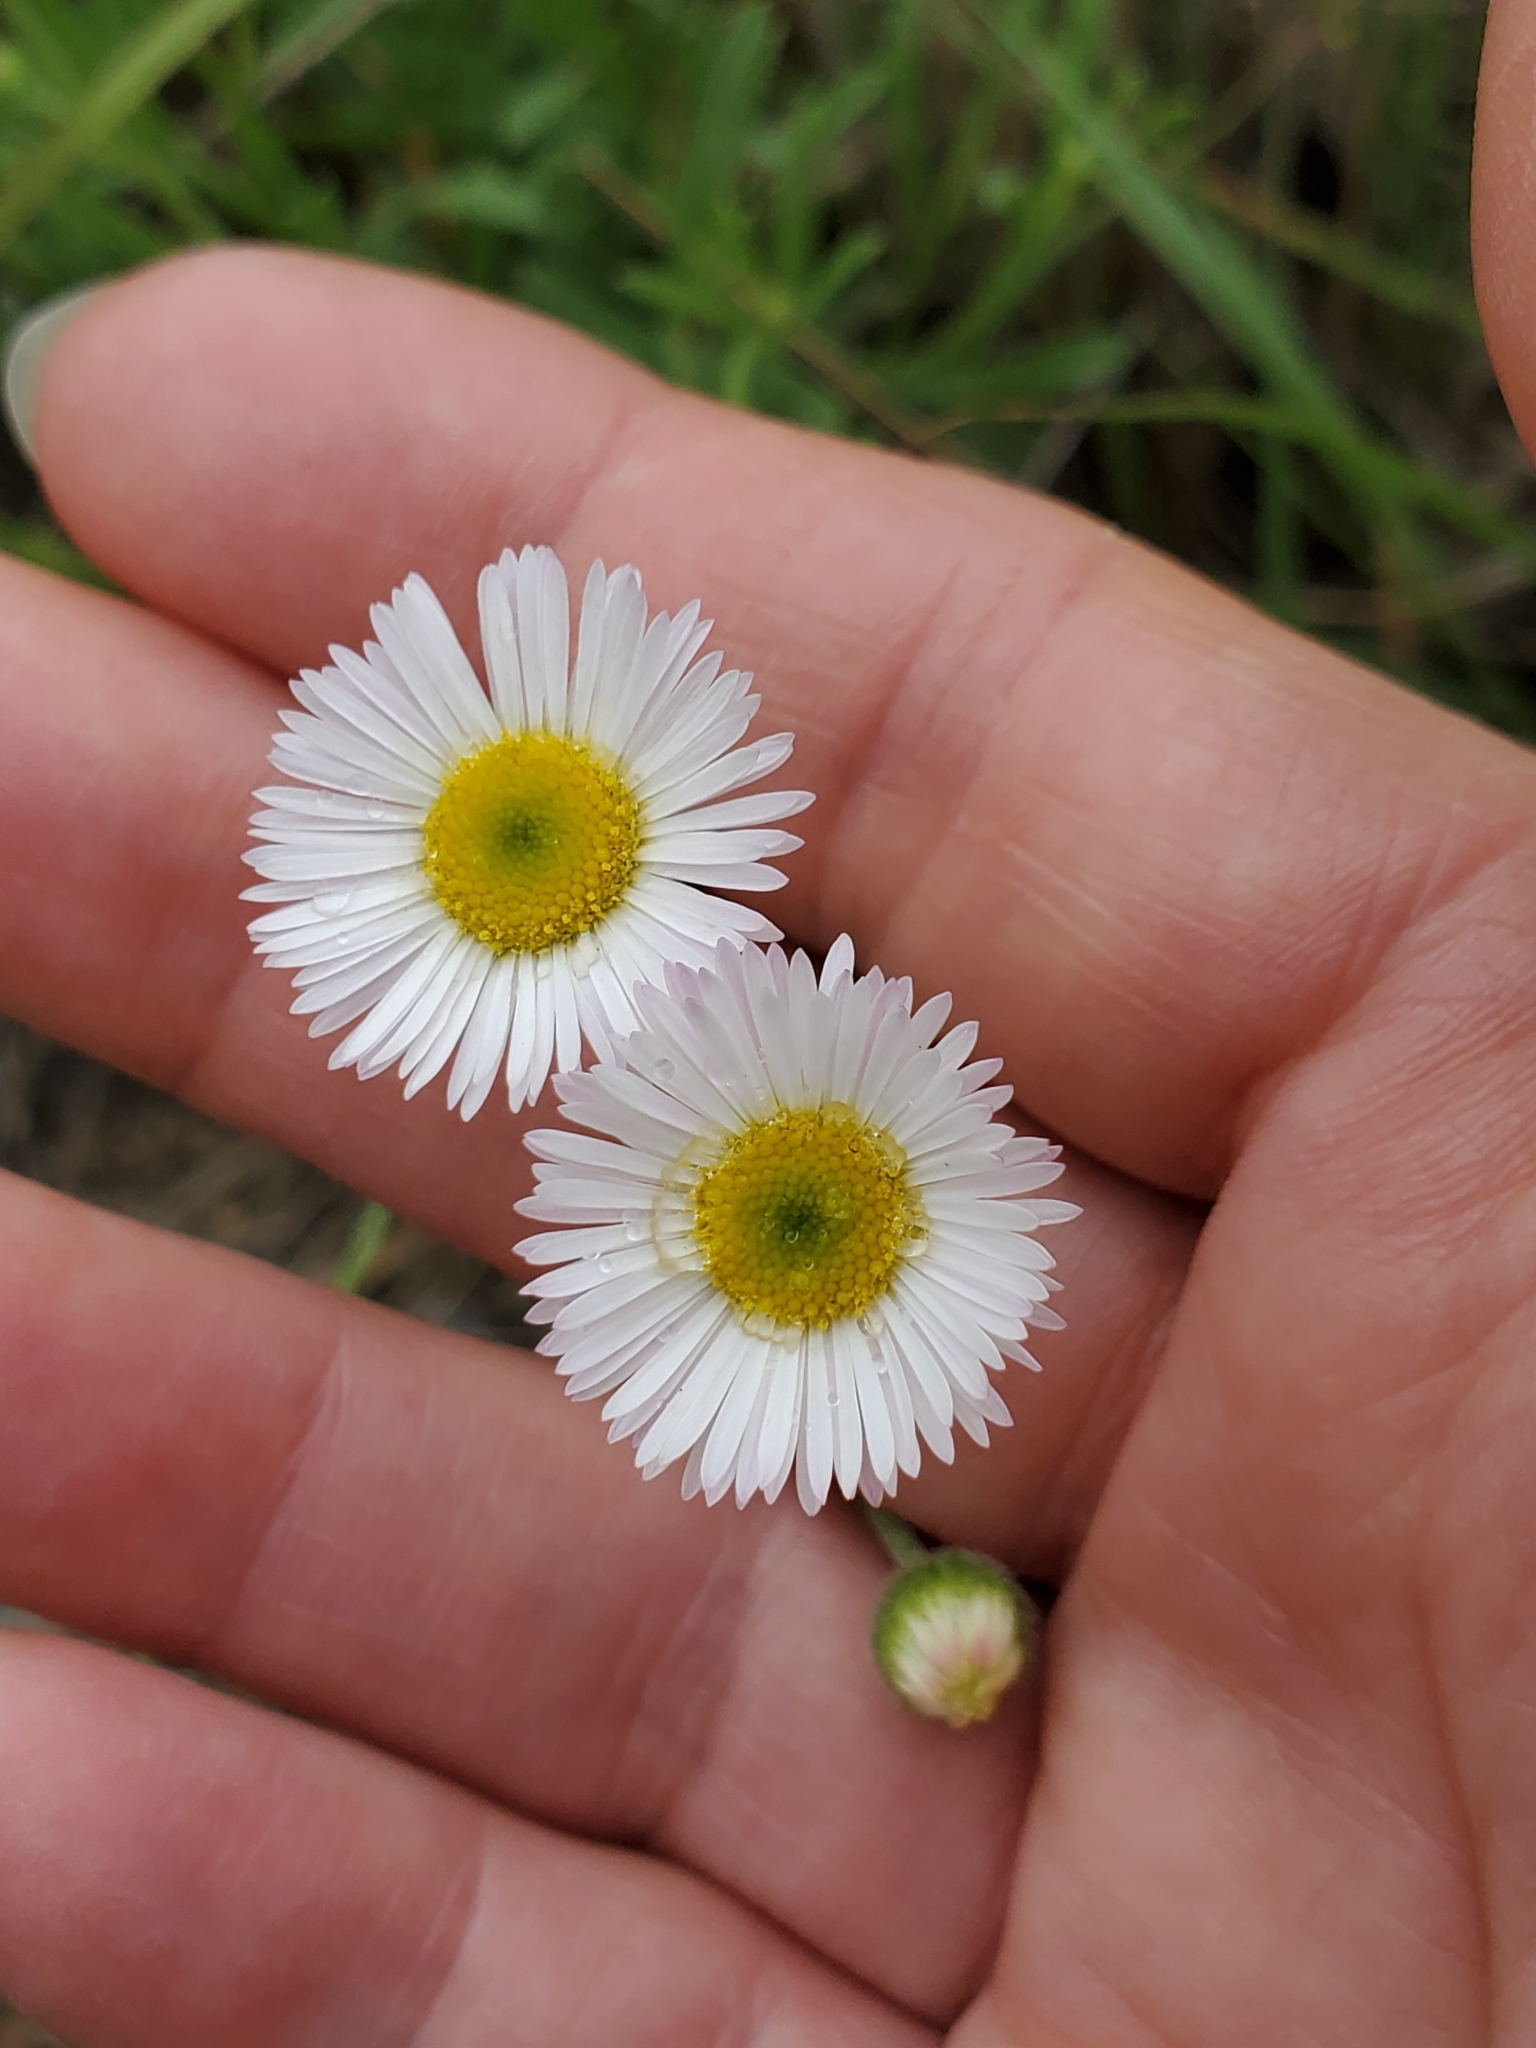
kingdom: Plantae
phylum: Tracheophyta
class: Magnoliopsida
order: Asterales
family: Asteraceae
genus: Erigeron
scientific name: Erigeron modestus
